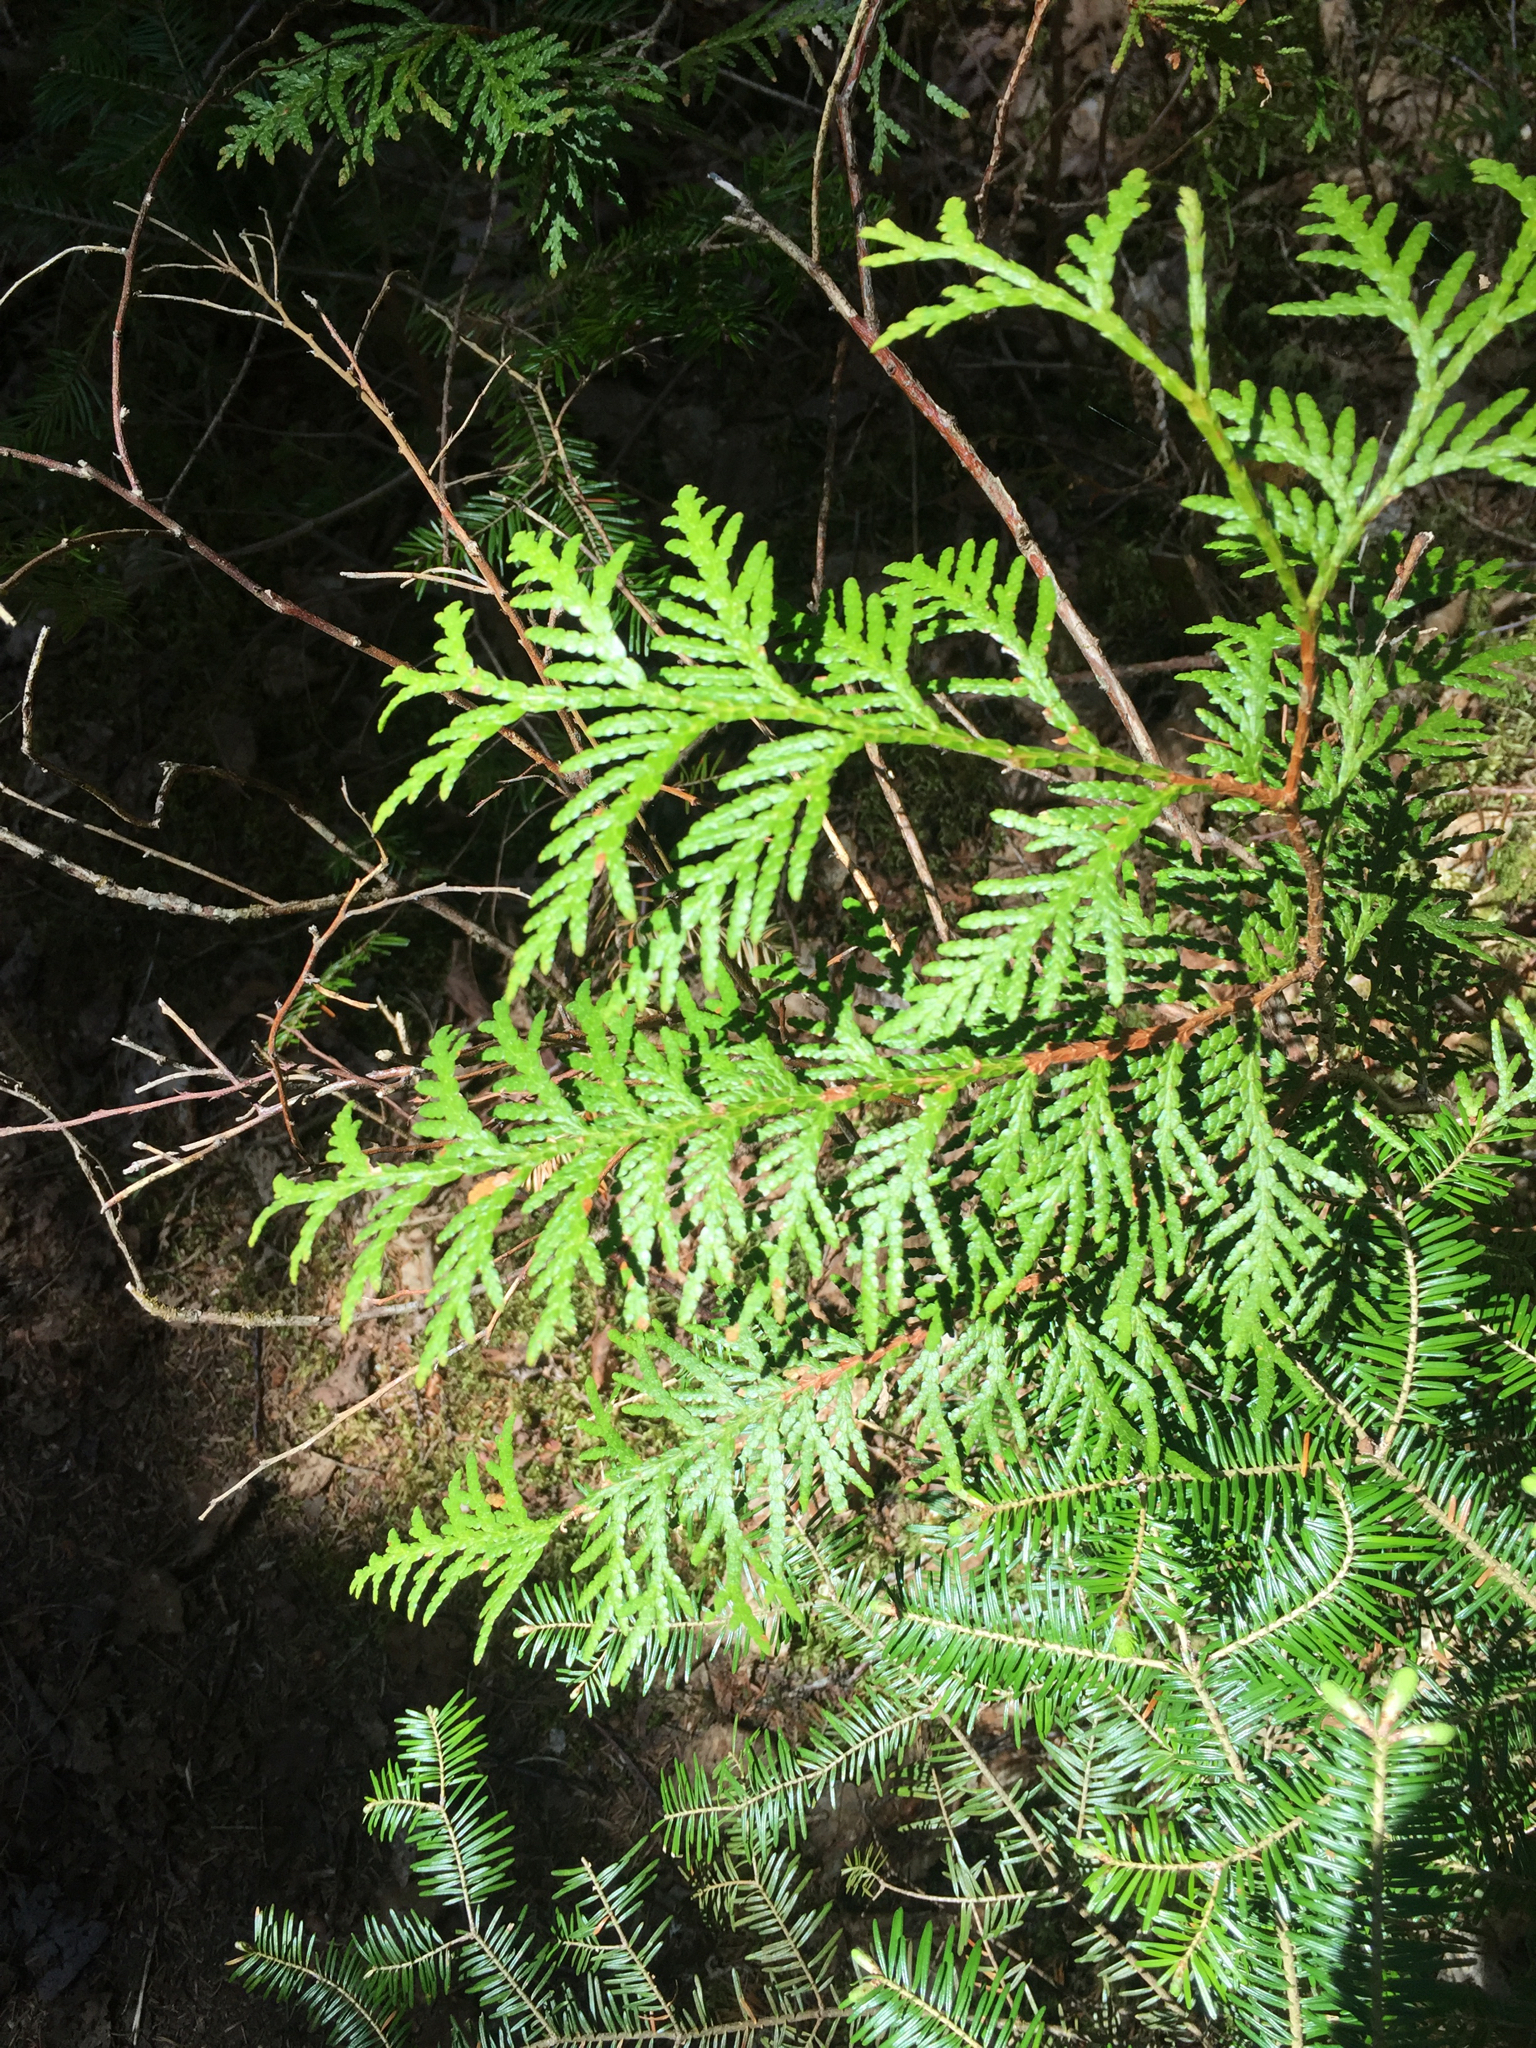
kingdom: Plantae
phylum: Tracheophyta
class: Pinopsida
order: Pinales
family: Cupressaceae
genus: Thuja
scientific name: Thuja occidentalis
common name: Northern white-cedar
